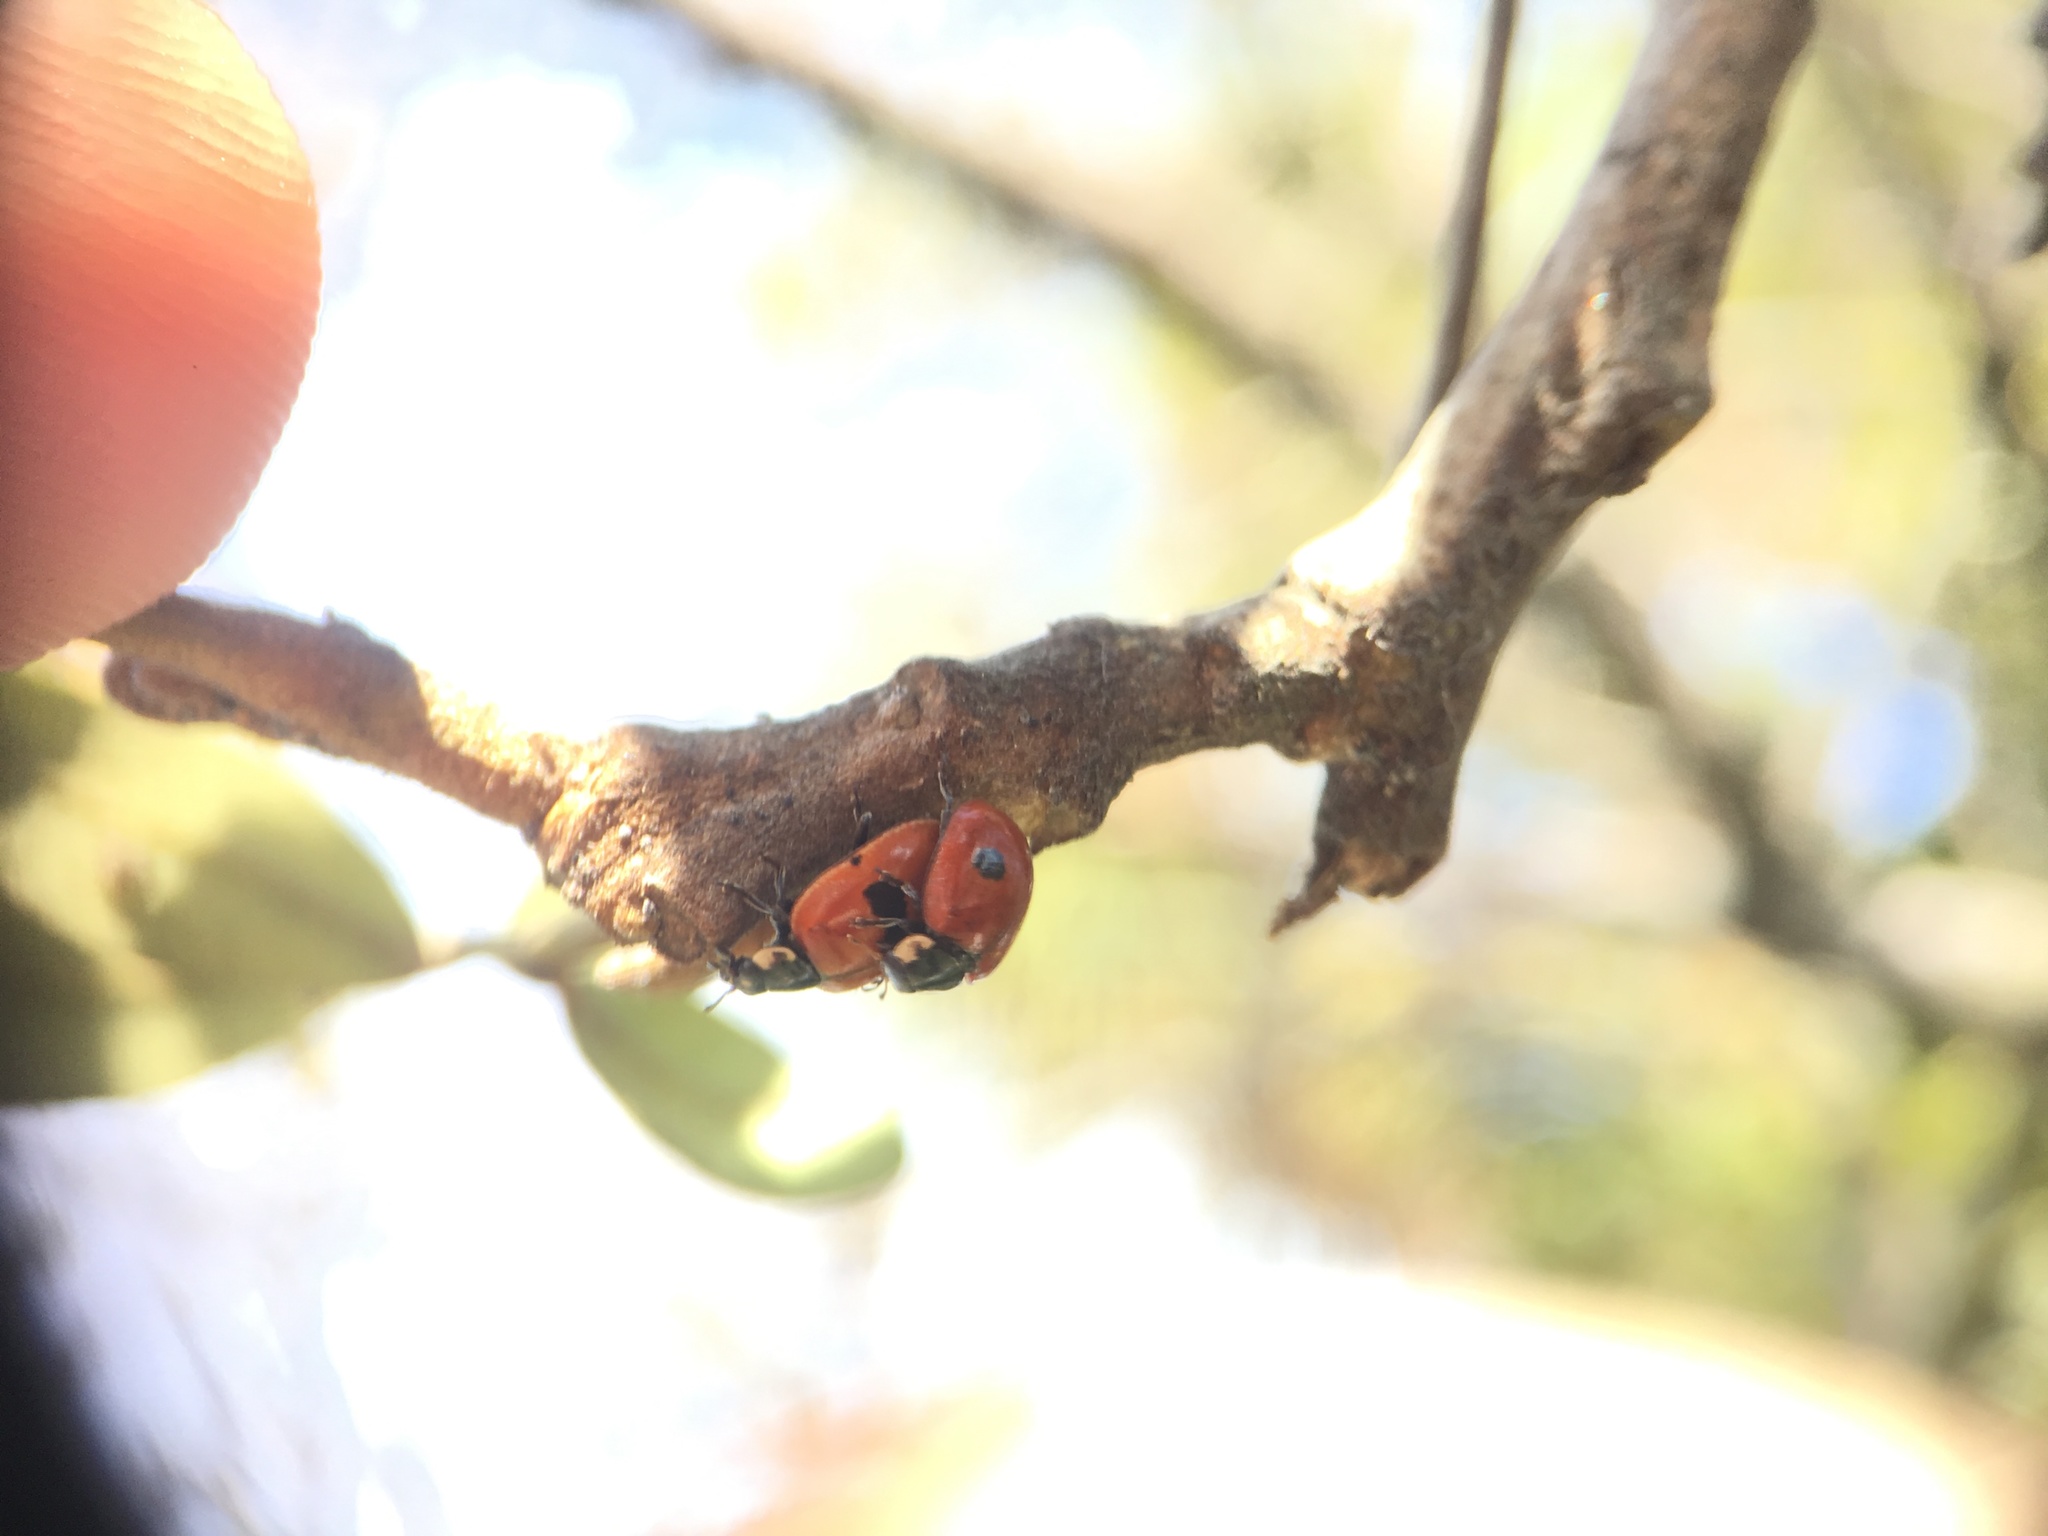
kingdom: Animalia
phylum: Arthropoda
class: Insecta
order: Coleoptera
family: Coccinellidae
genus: Adalia
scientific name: Adalia bipunctata
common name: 2-spot ladybird
